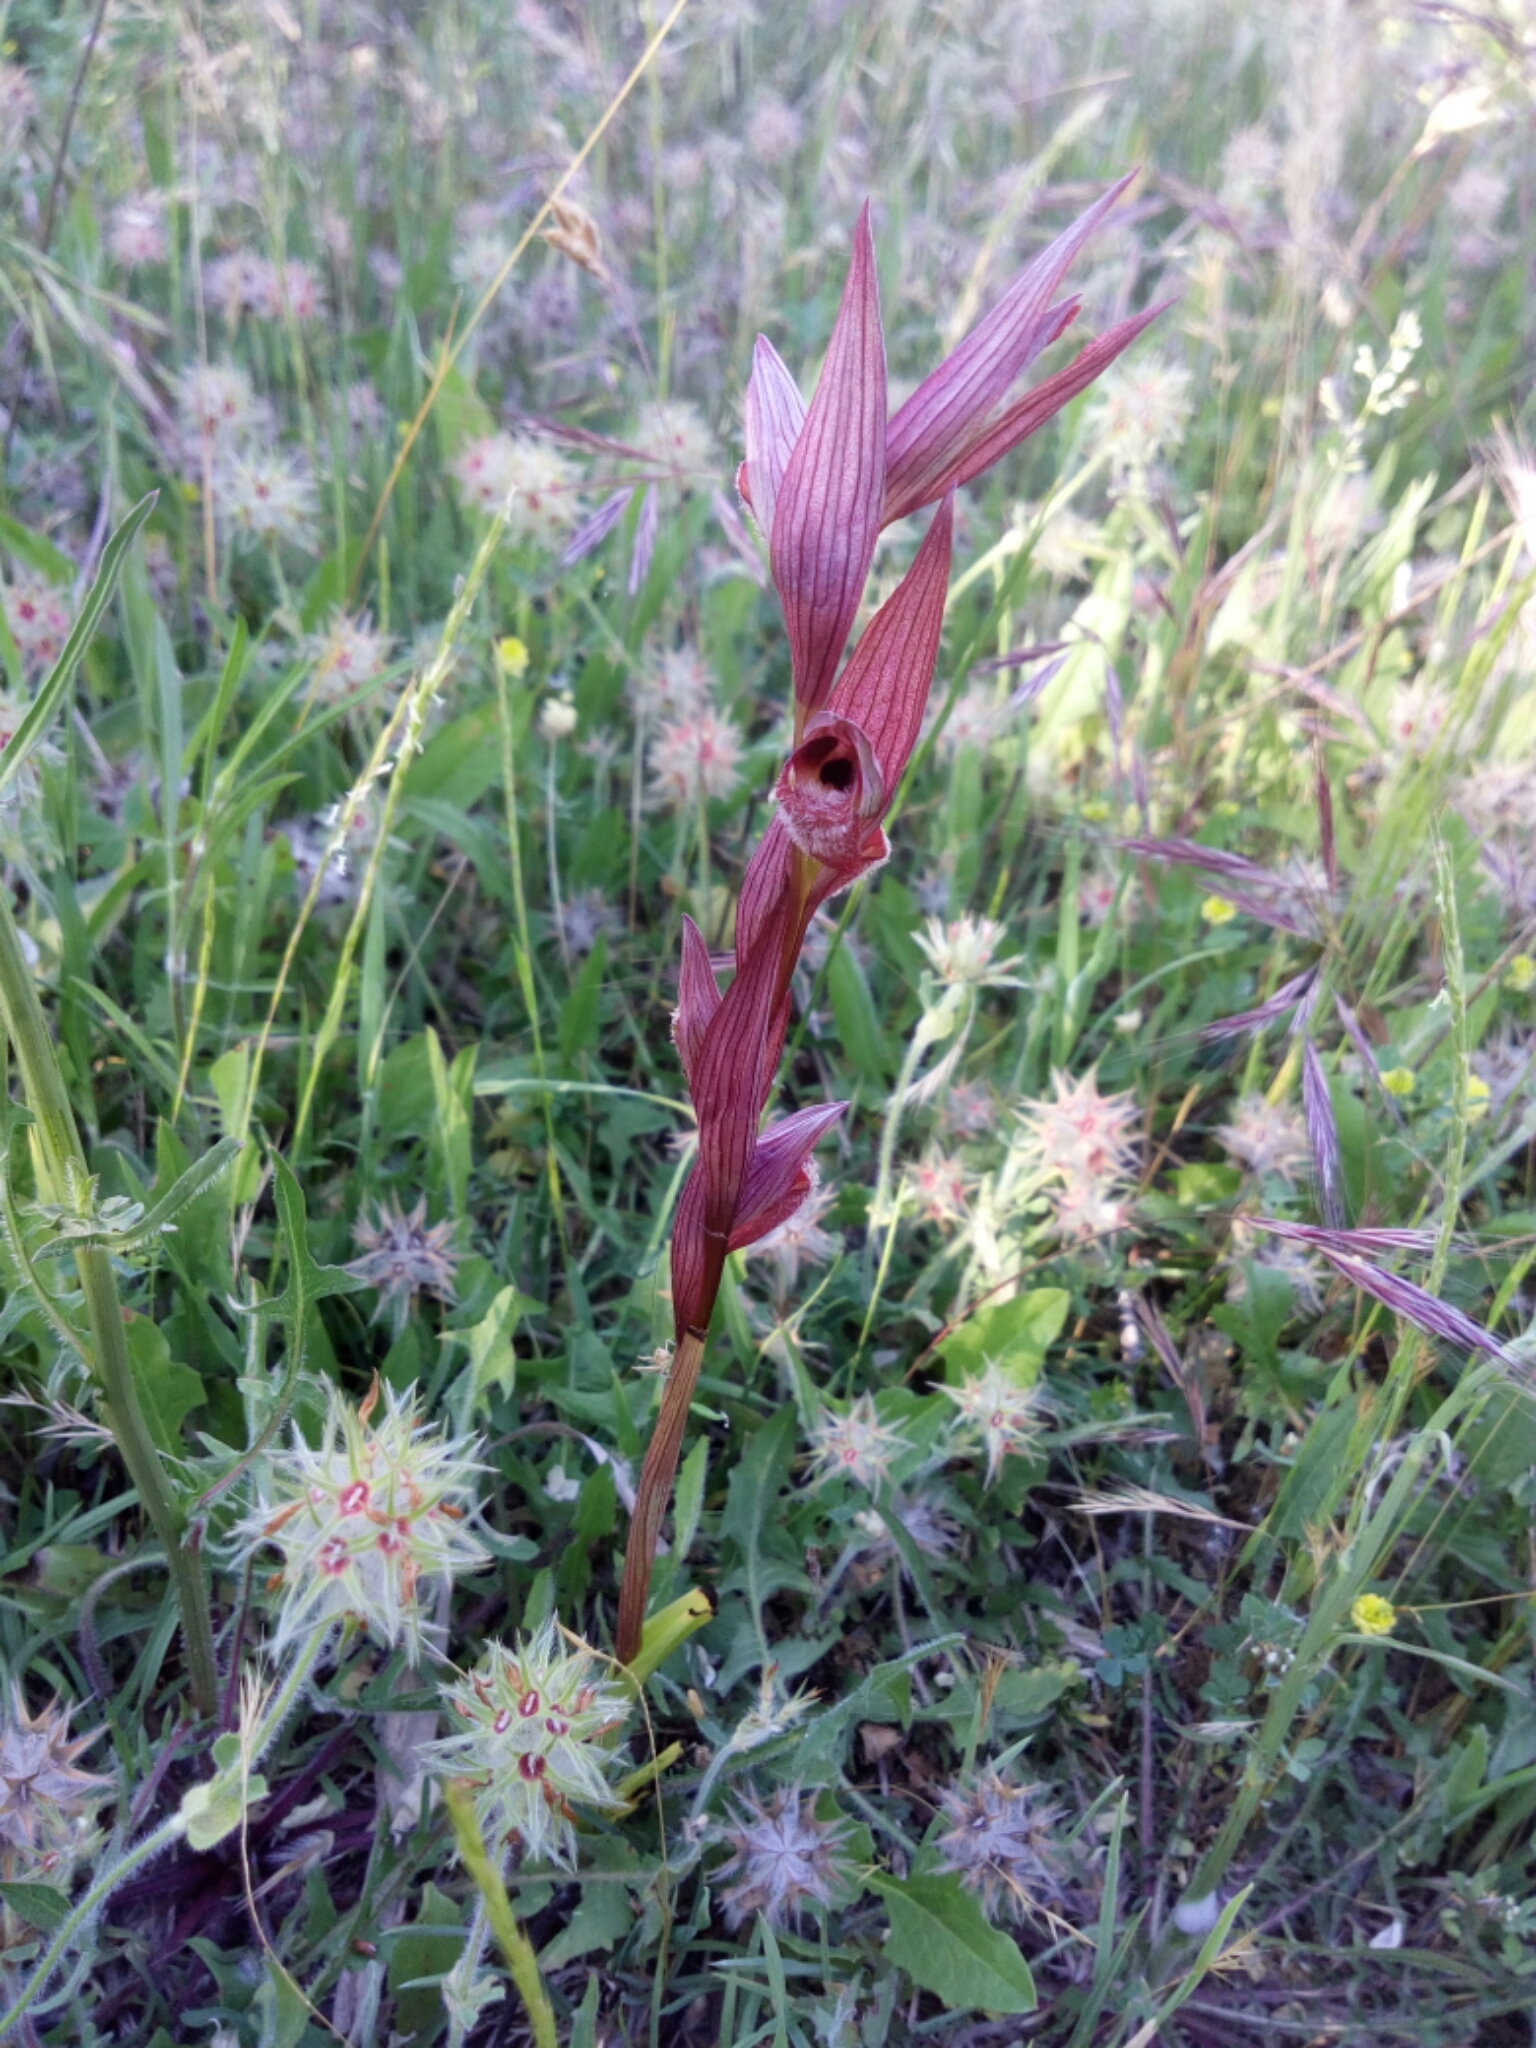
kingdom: Plantae
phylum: Tracheophyta
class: Liliopsida
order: Asparagales
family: Orchidaceae
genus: Serapias
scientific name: Serapias vomeracea
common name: Long-lipped tongue-orchid
